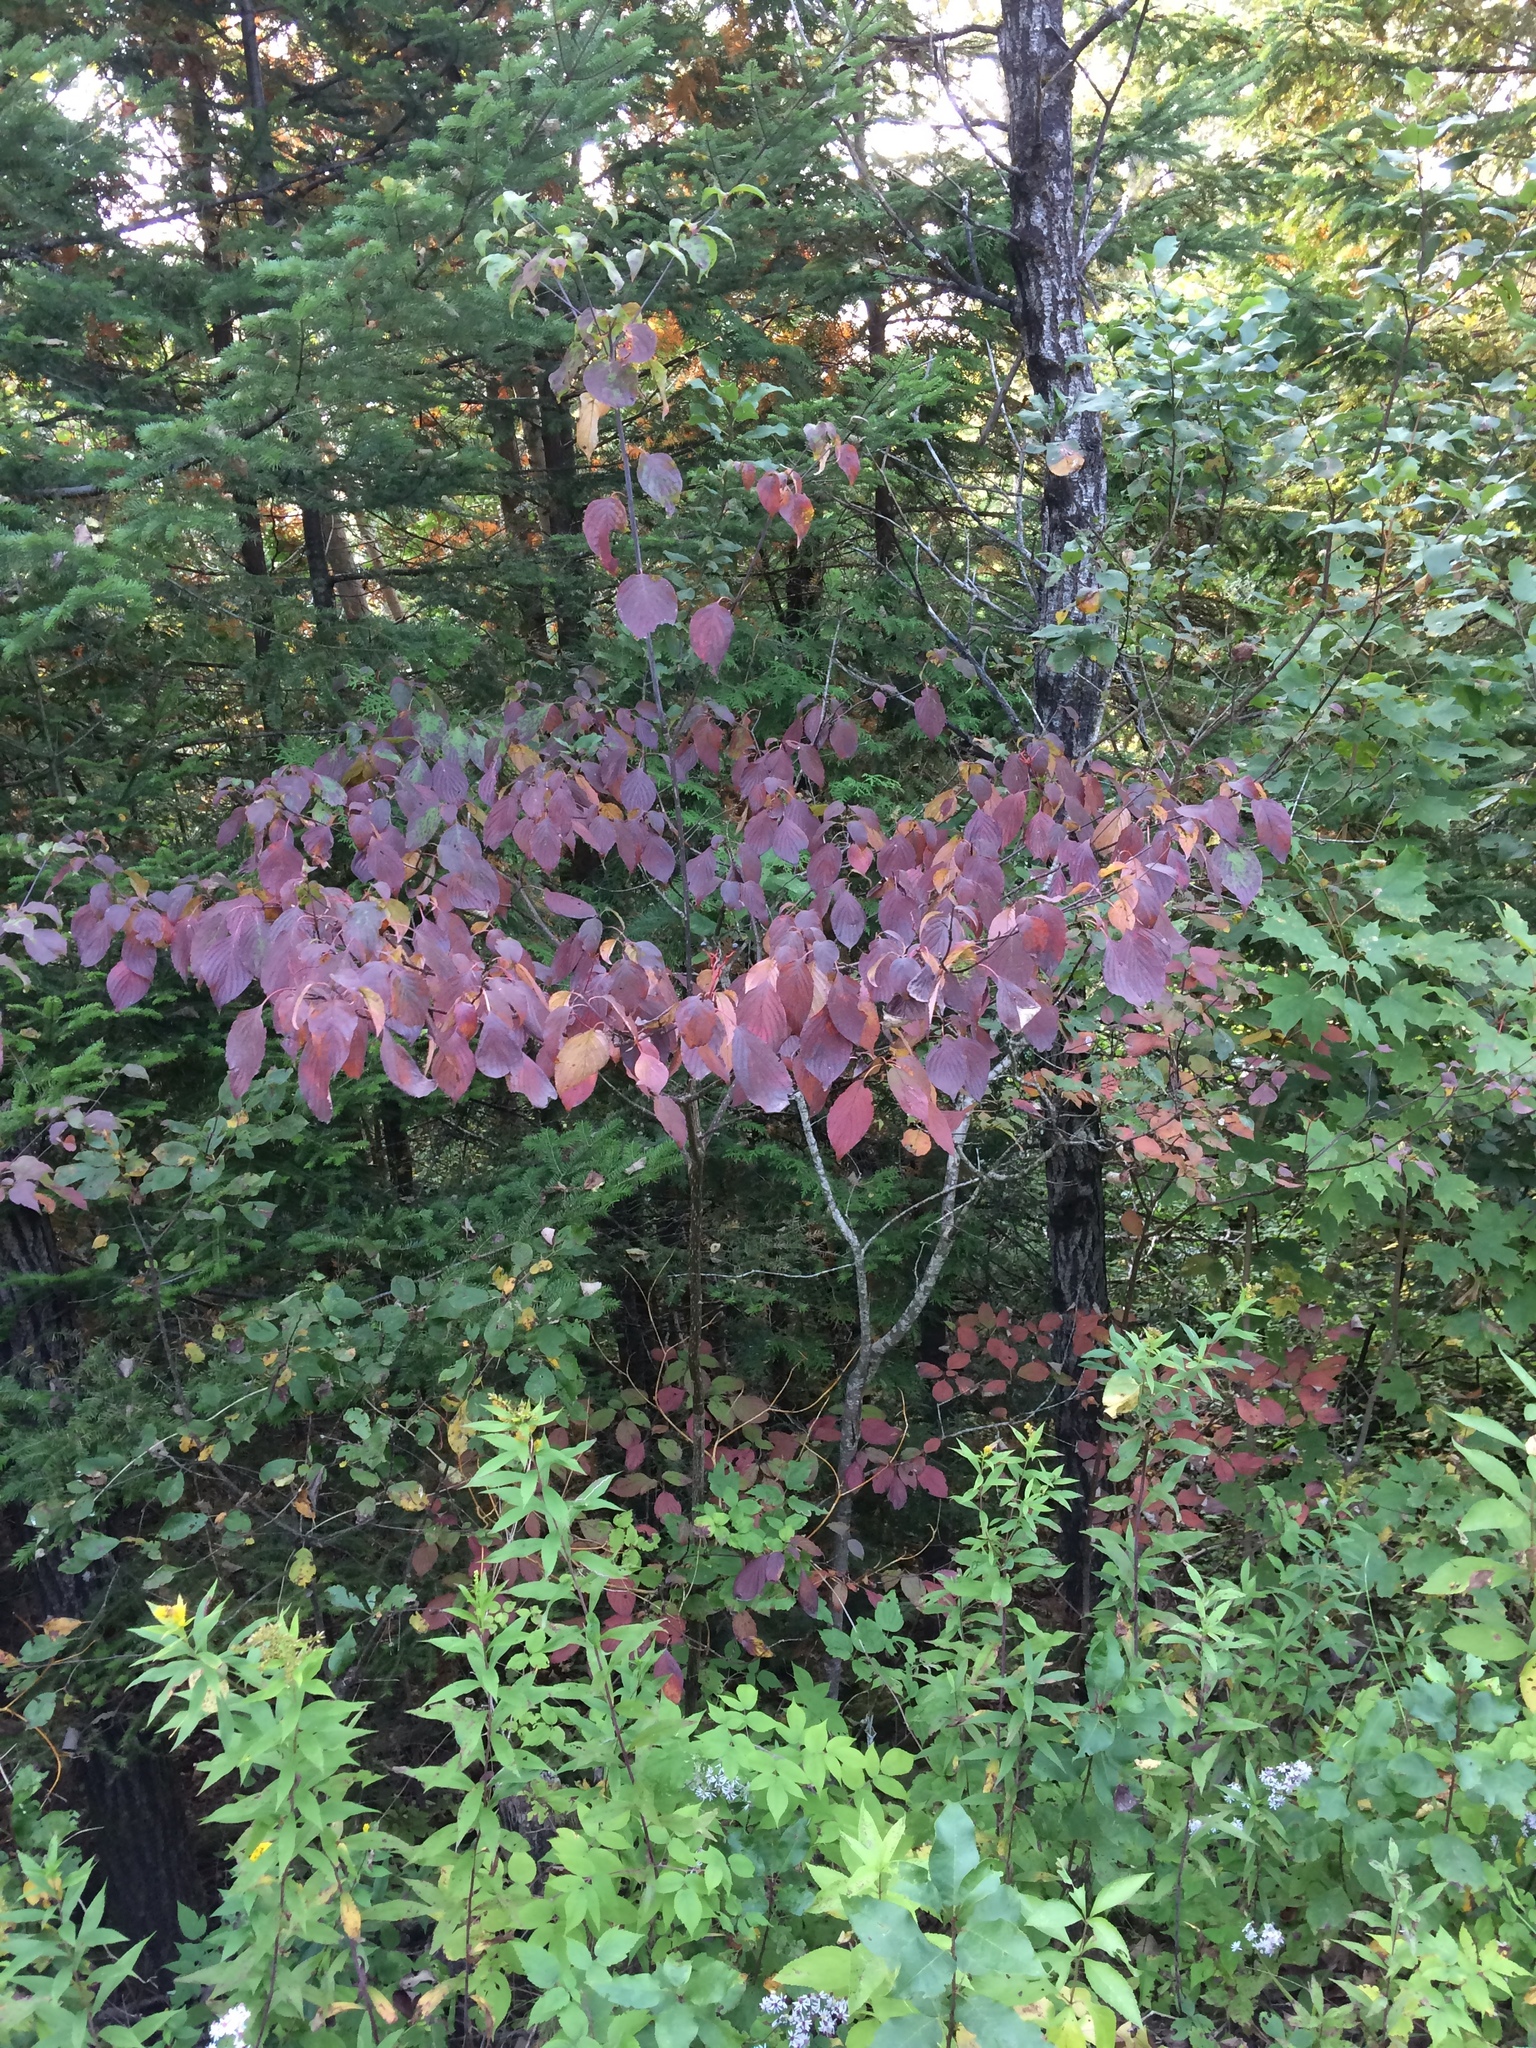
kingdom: Plantae
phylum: Tracheophyta
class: Magnoliopsida
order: Cornales
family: Cornaceae
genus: Cornus
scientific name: Cornus alternifolia
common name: Pagoda dogwood
